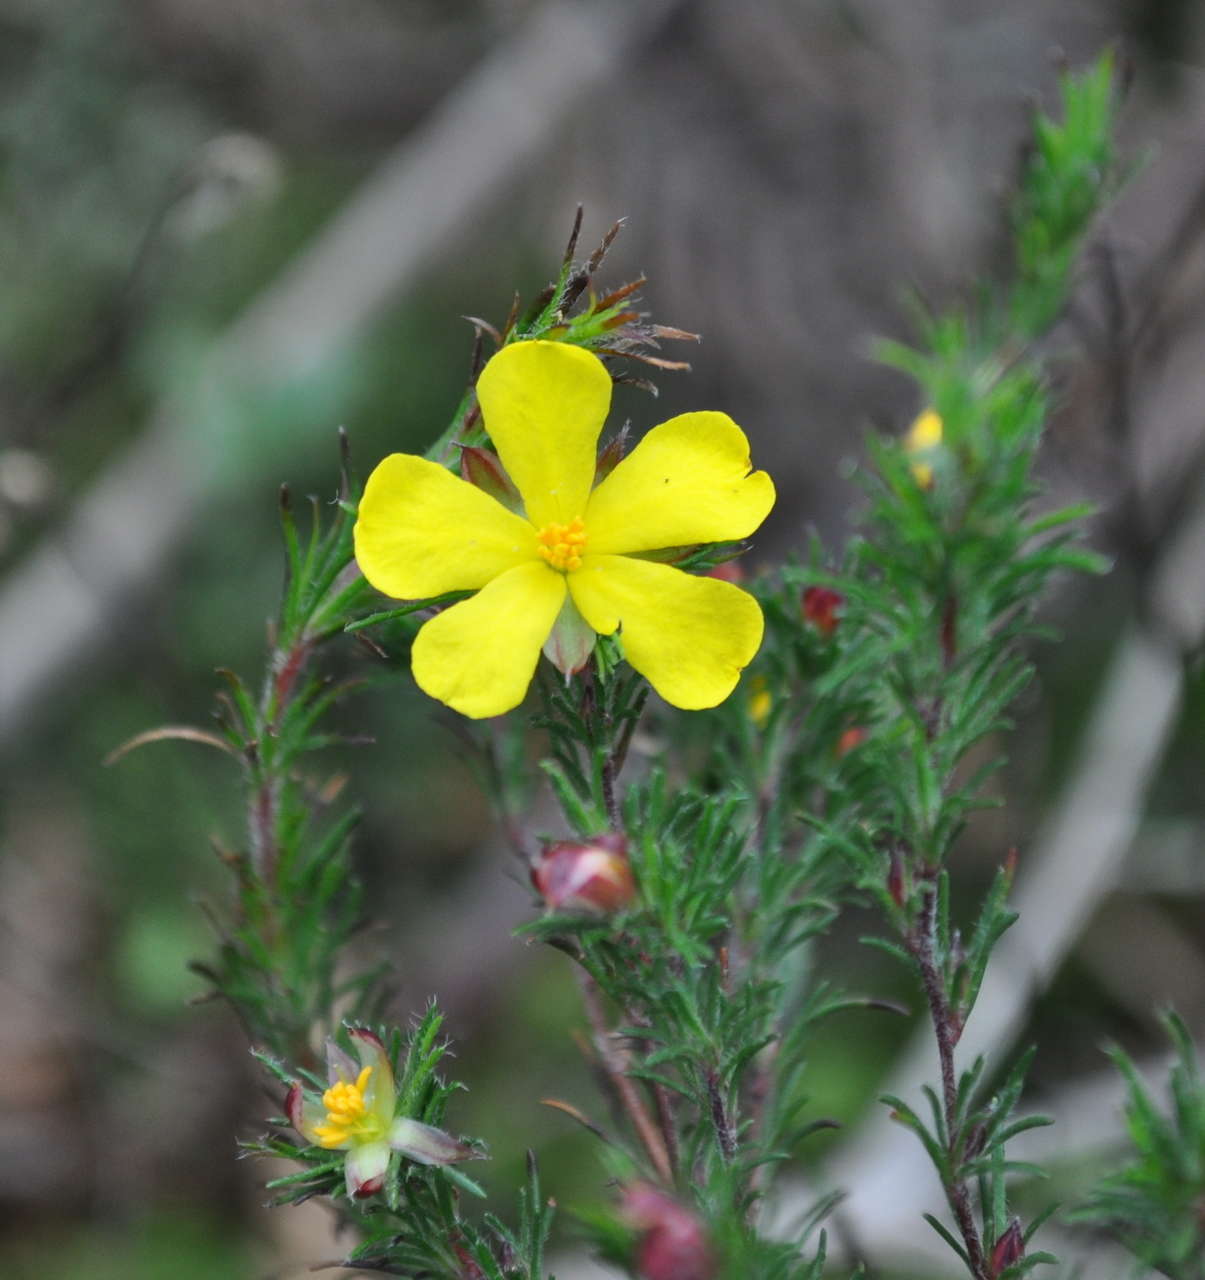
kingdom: Plantae
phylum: Tracheophyta
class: Magnoliopsida
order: Dilleniales
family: Dilleniaceae
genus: Hibbertia
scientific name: Hibbertia prostrata
